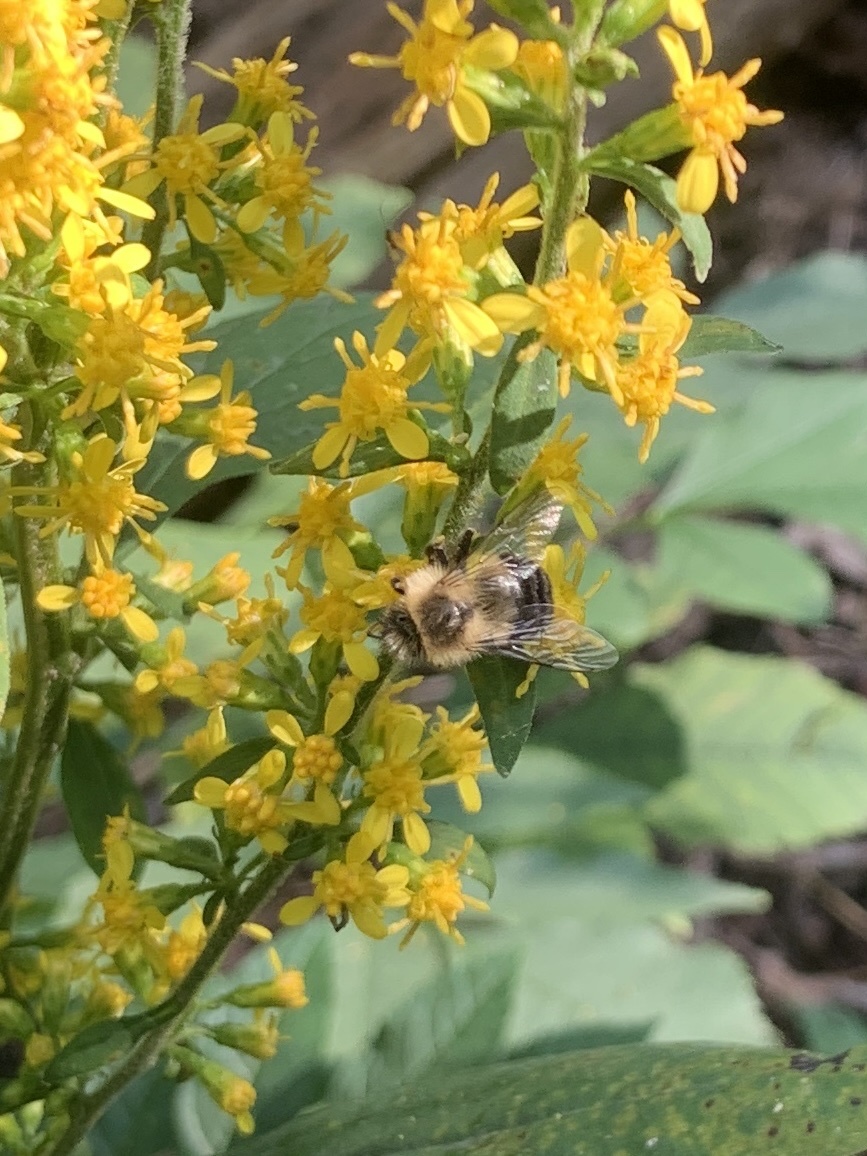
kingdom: Animalia
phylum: Arthropoda
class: Insecta
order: Hymenoptera
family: Apidae
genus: Bombus
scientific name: Bombus impatiens
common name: Common eastern bumble bee
